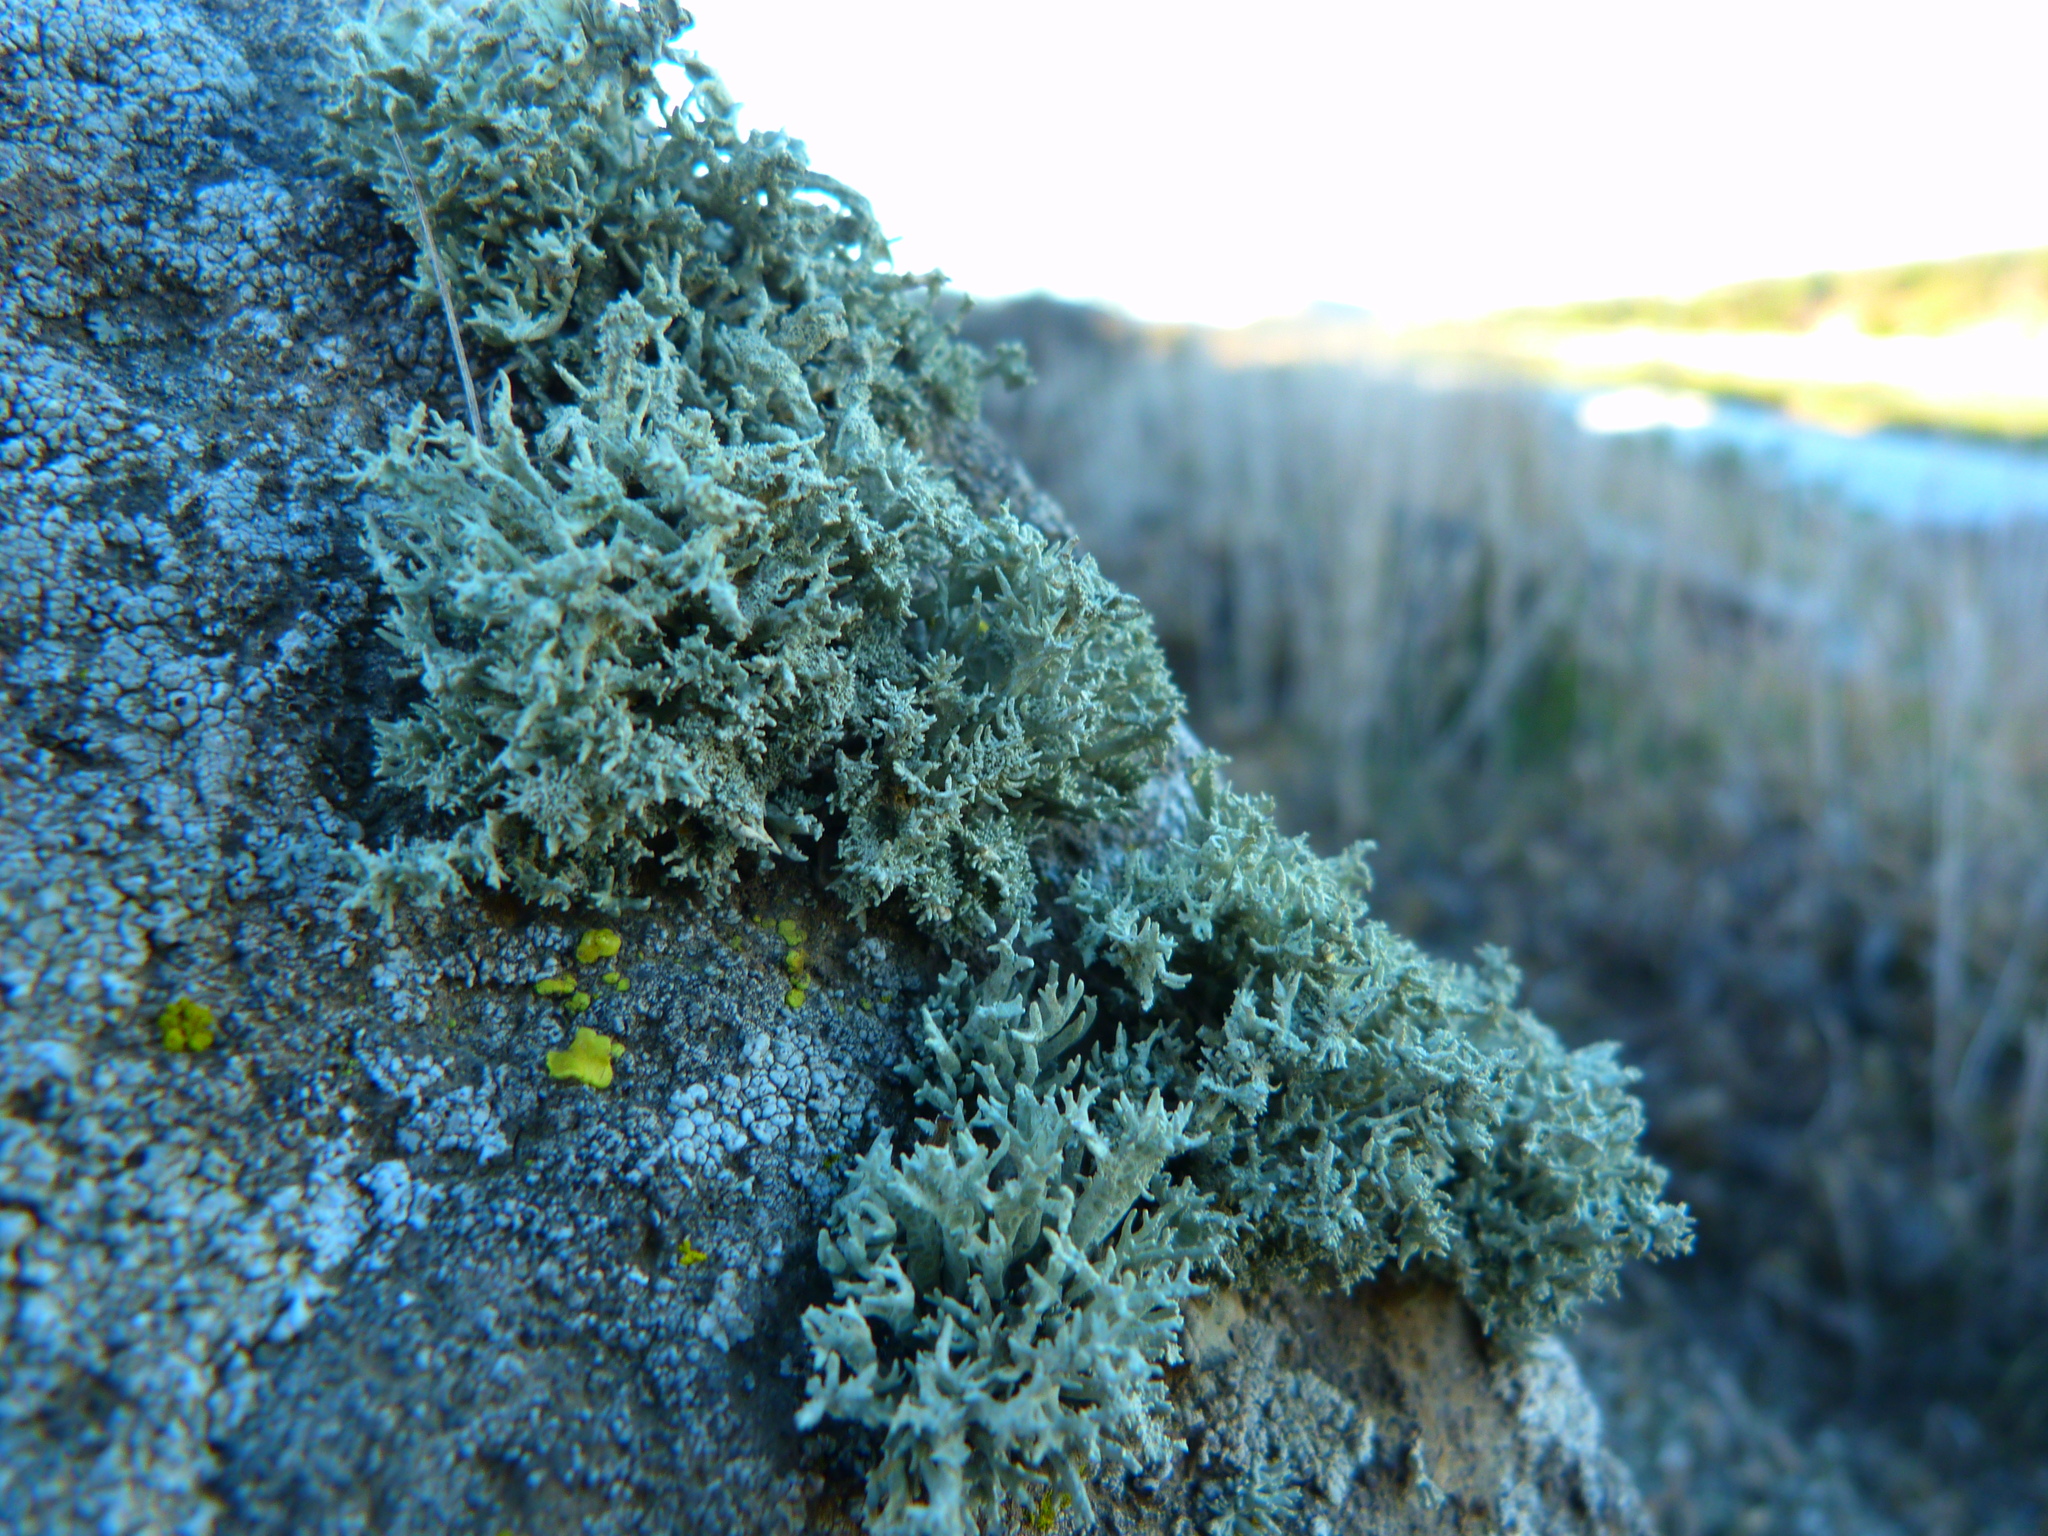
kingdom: Fungi
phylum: Ascomycota
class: Lecanoromycetes
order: Lecanorales
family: Ramalinaceae
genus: Niebla
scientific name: Niebla isidiaescens
